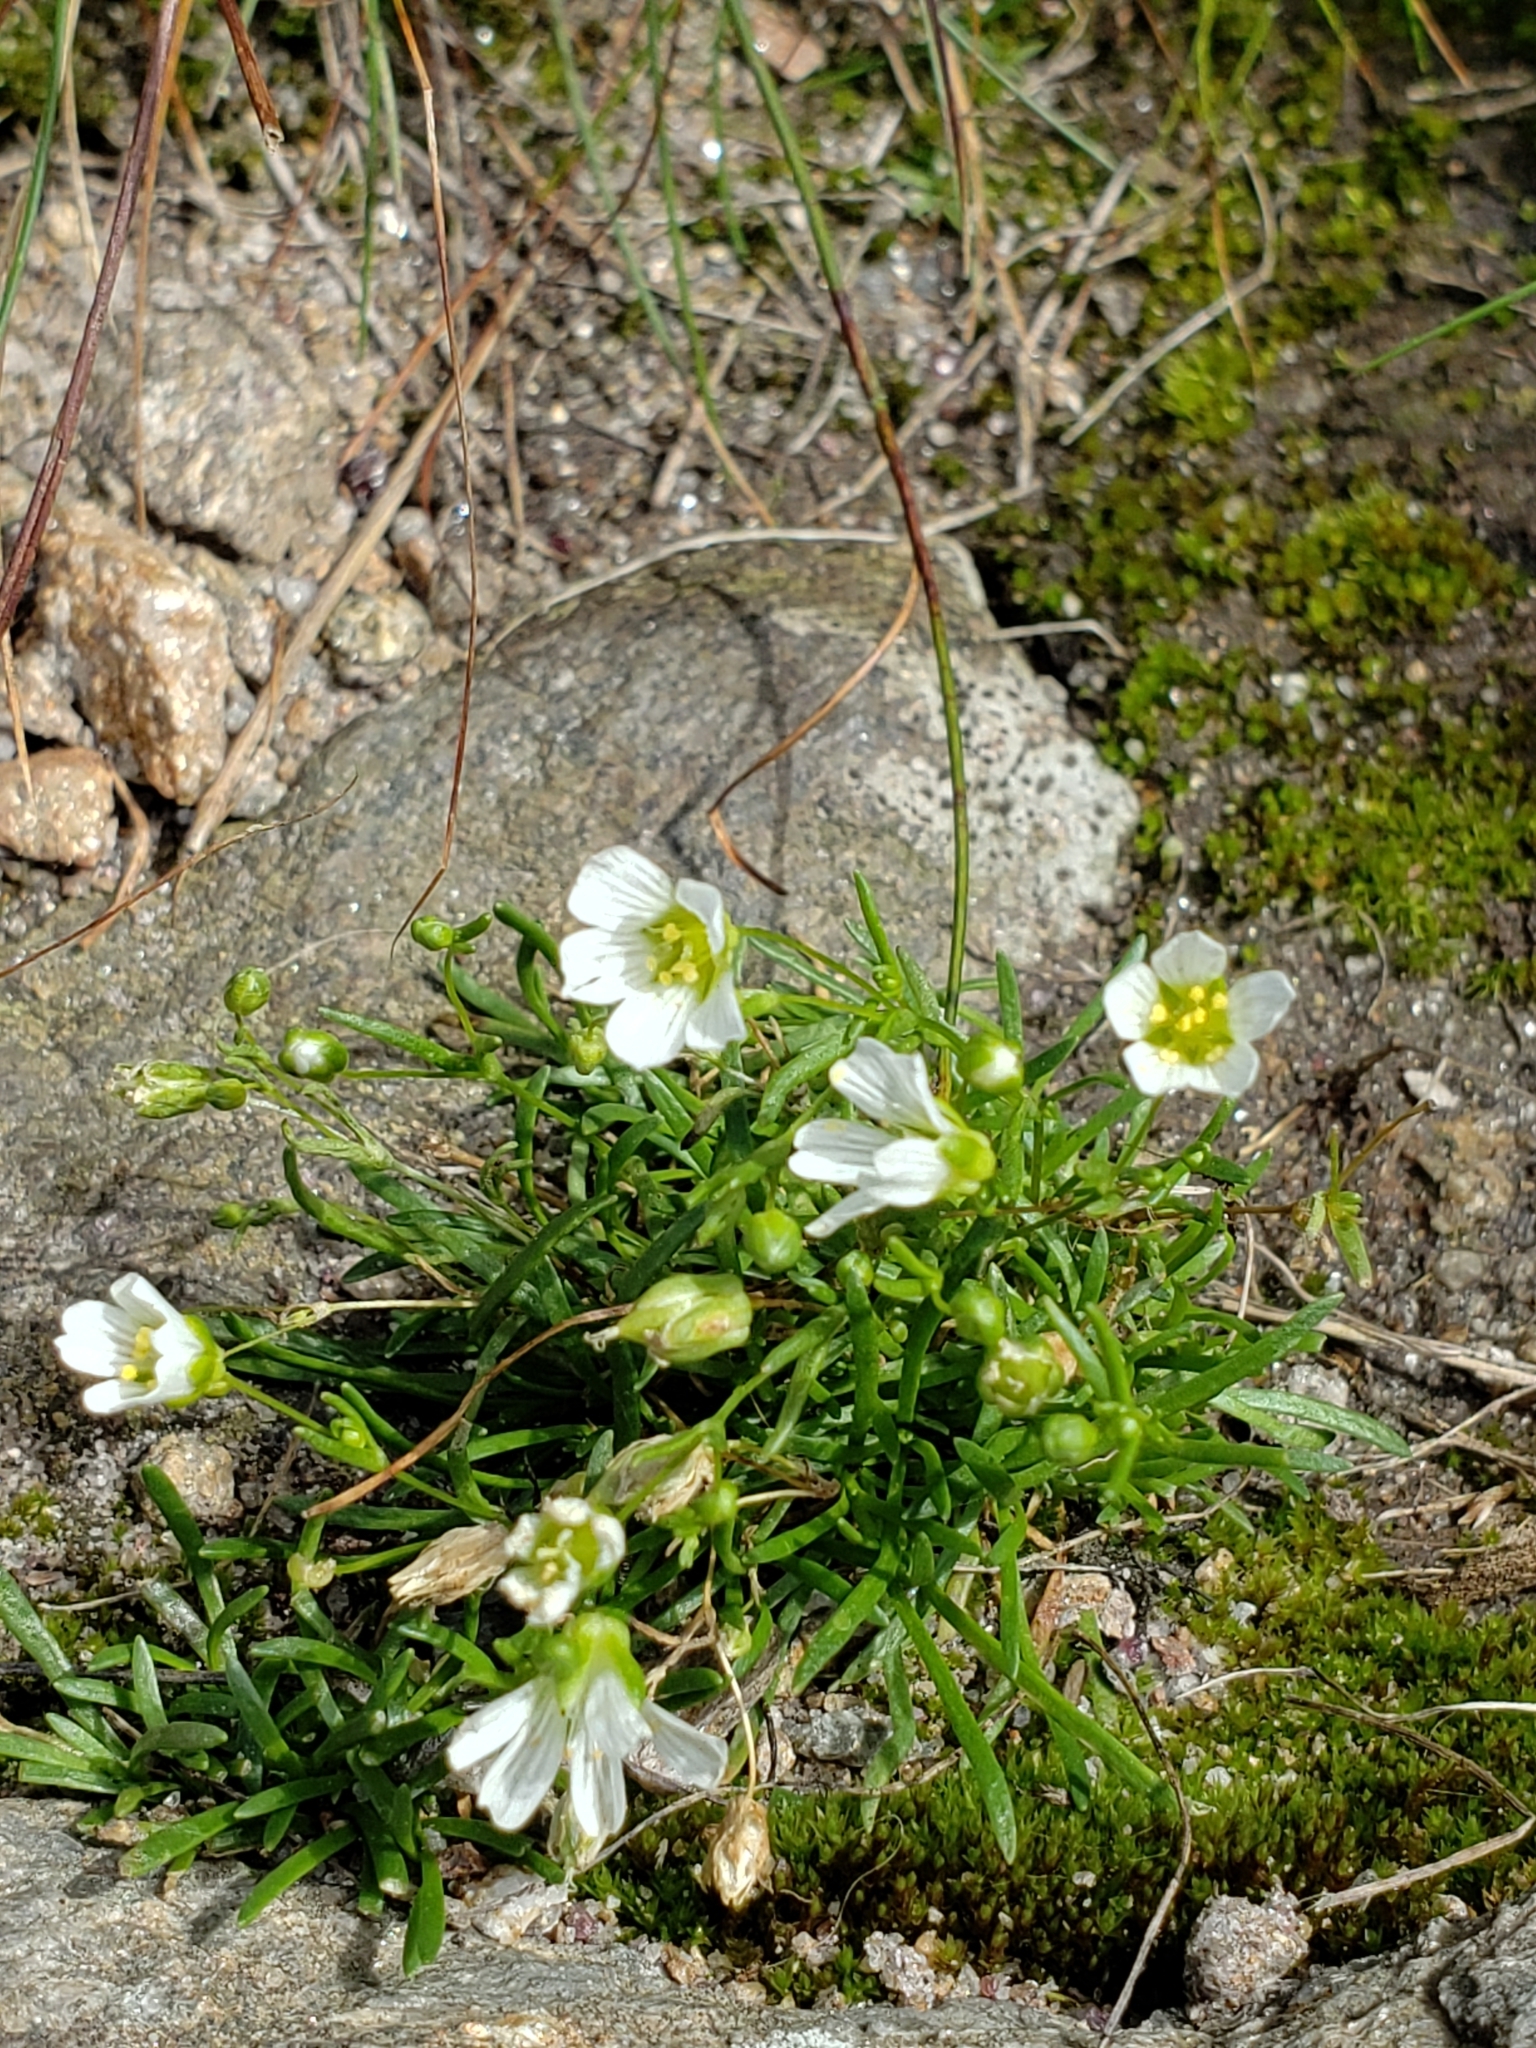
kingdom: Plantae
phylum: Tracheophyta
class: Magnoliopsida
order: Caryophyllales
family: Caryophyllaceae
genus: Geocarpon
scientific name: Geocarpon groenlandicum
